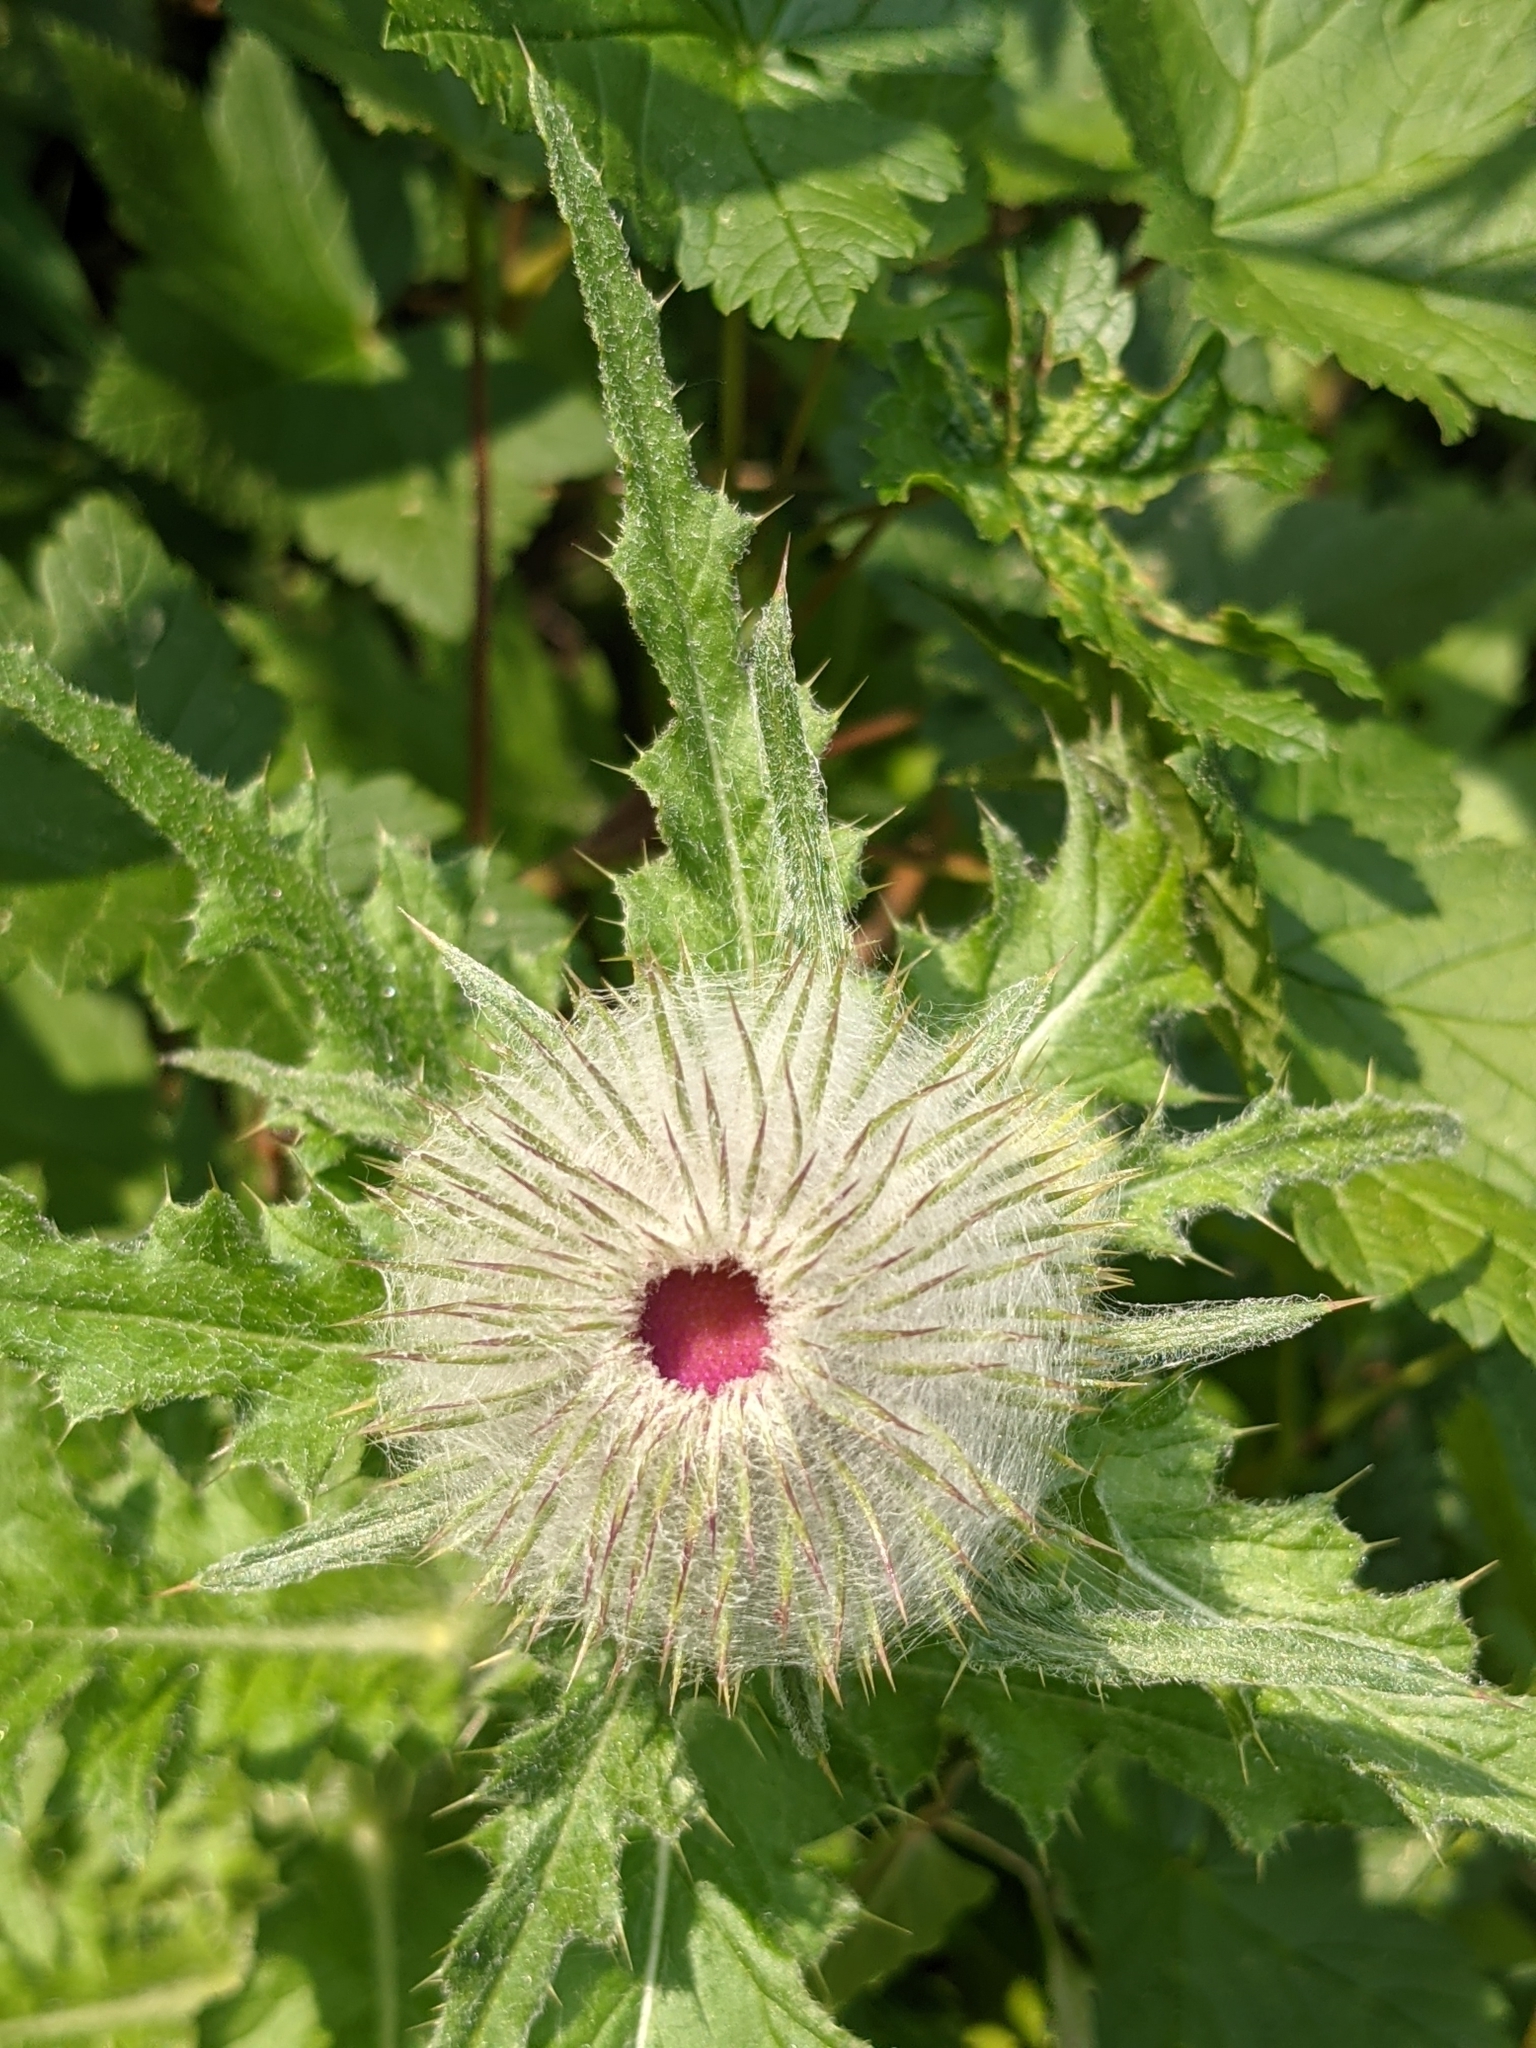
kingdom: Plantae
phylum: Tracheophyta
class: Magnoliopsida
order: Asterales
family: Asteraceae
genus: Cirsium
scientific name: Cirsium edule
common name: Indian thistle
